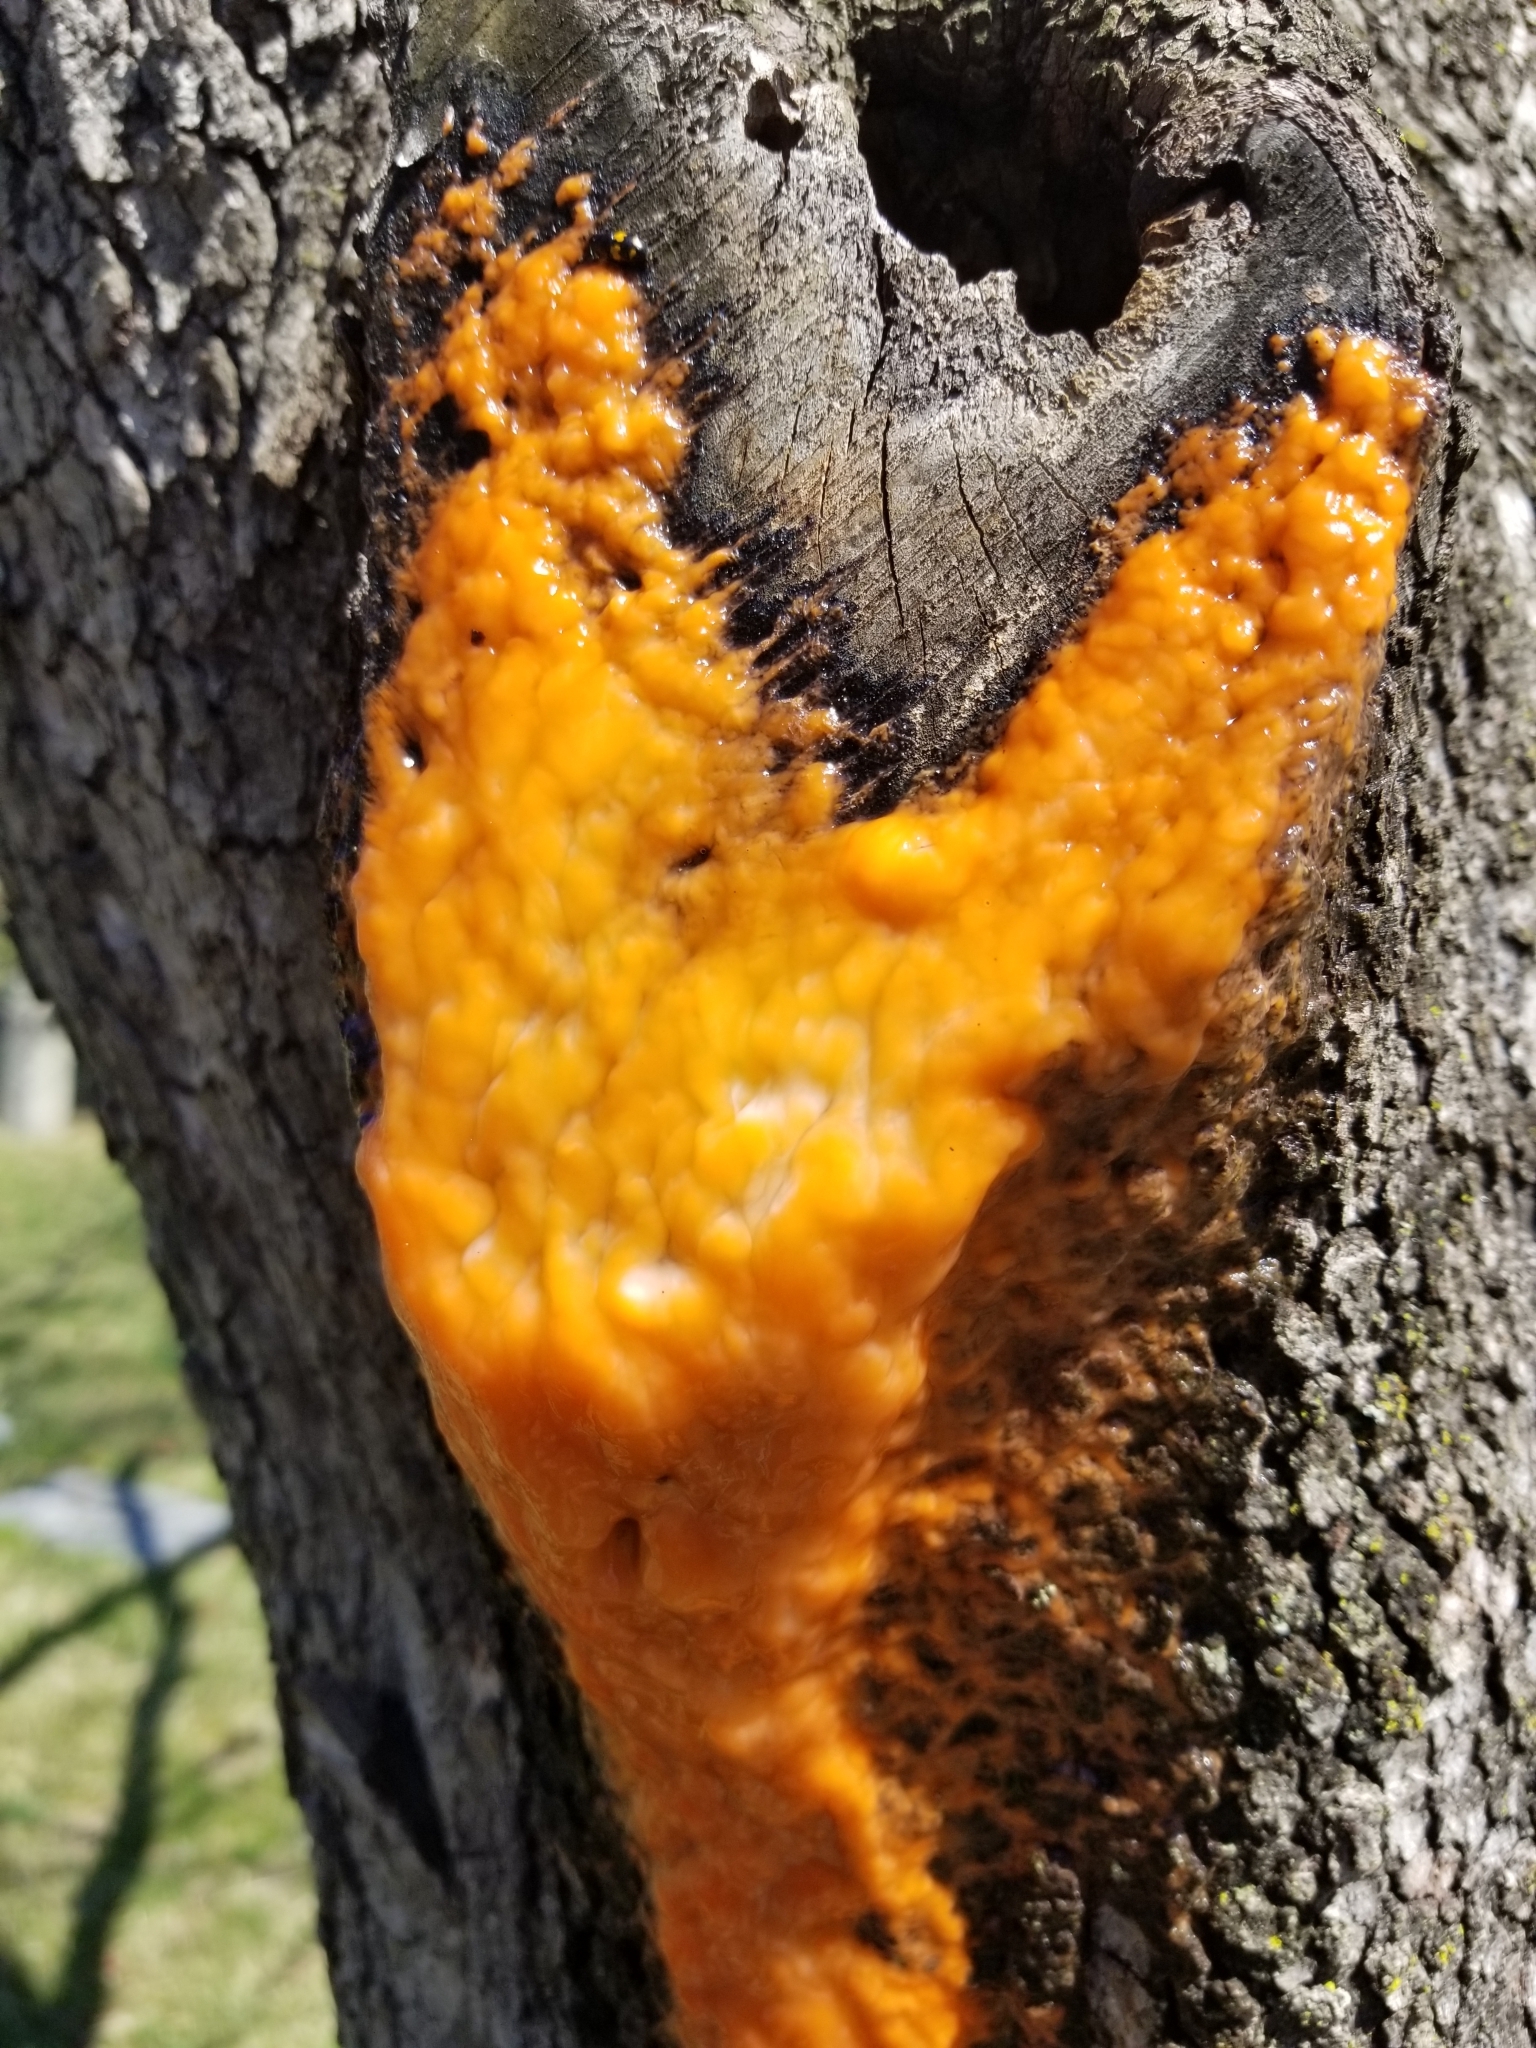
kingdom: Fungi
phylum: Ascomycota
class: Sordariomycetes
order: Hypocreales
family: Nectriaceae
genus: Fusicolla
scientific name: Fusicolla merismoides
